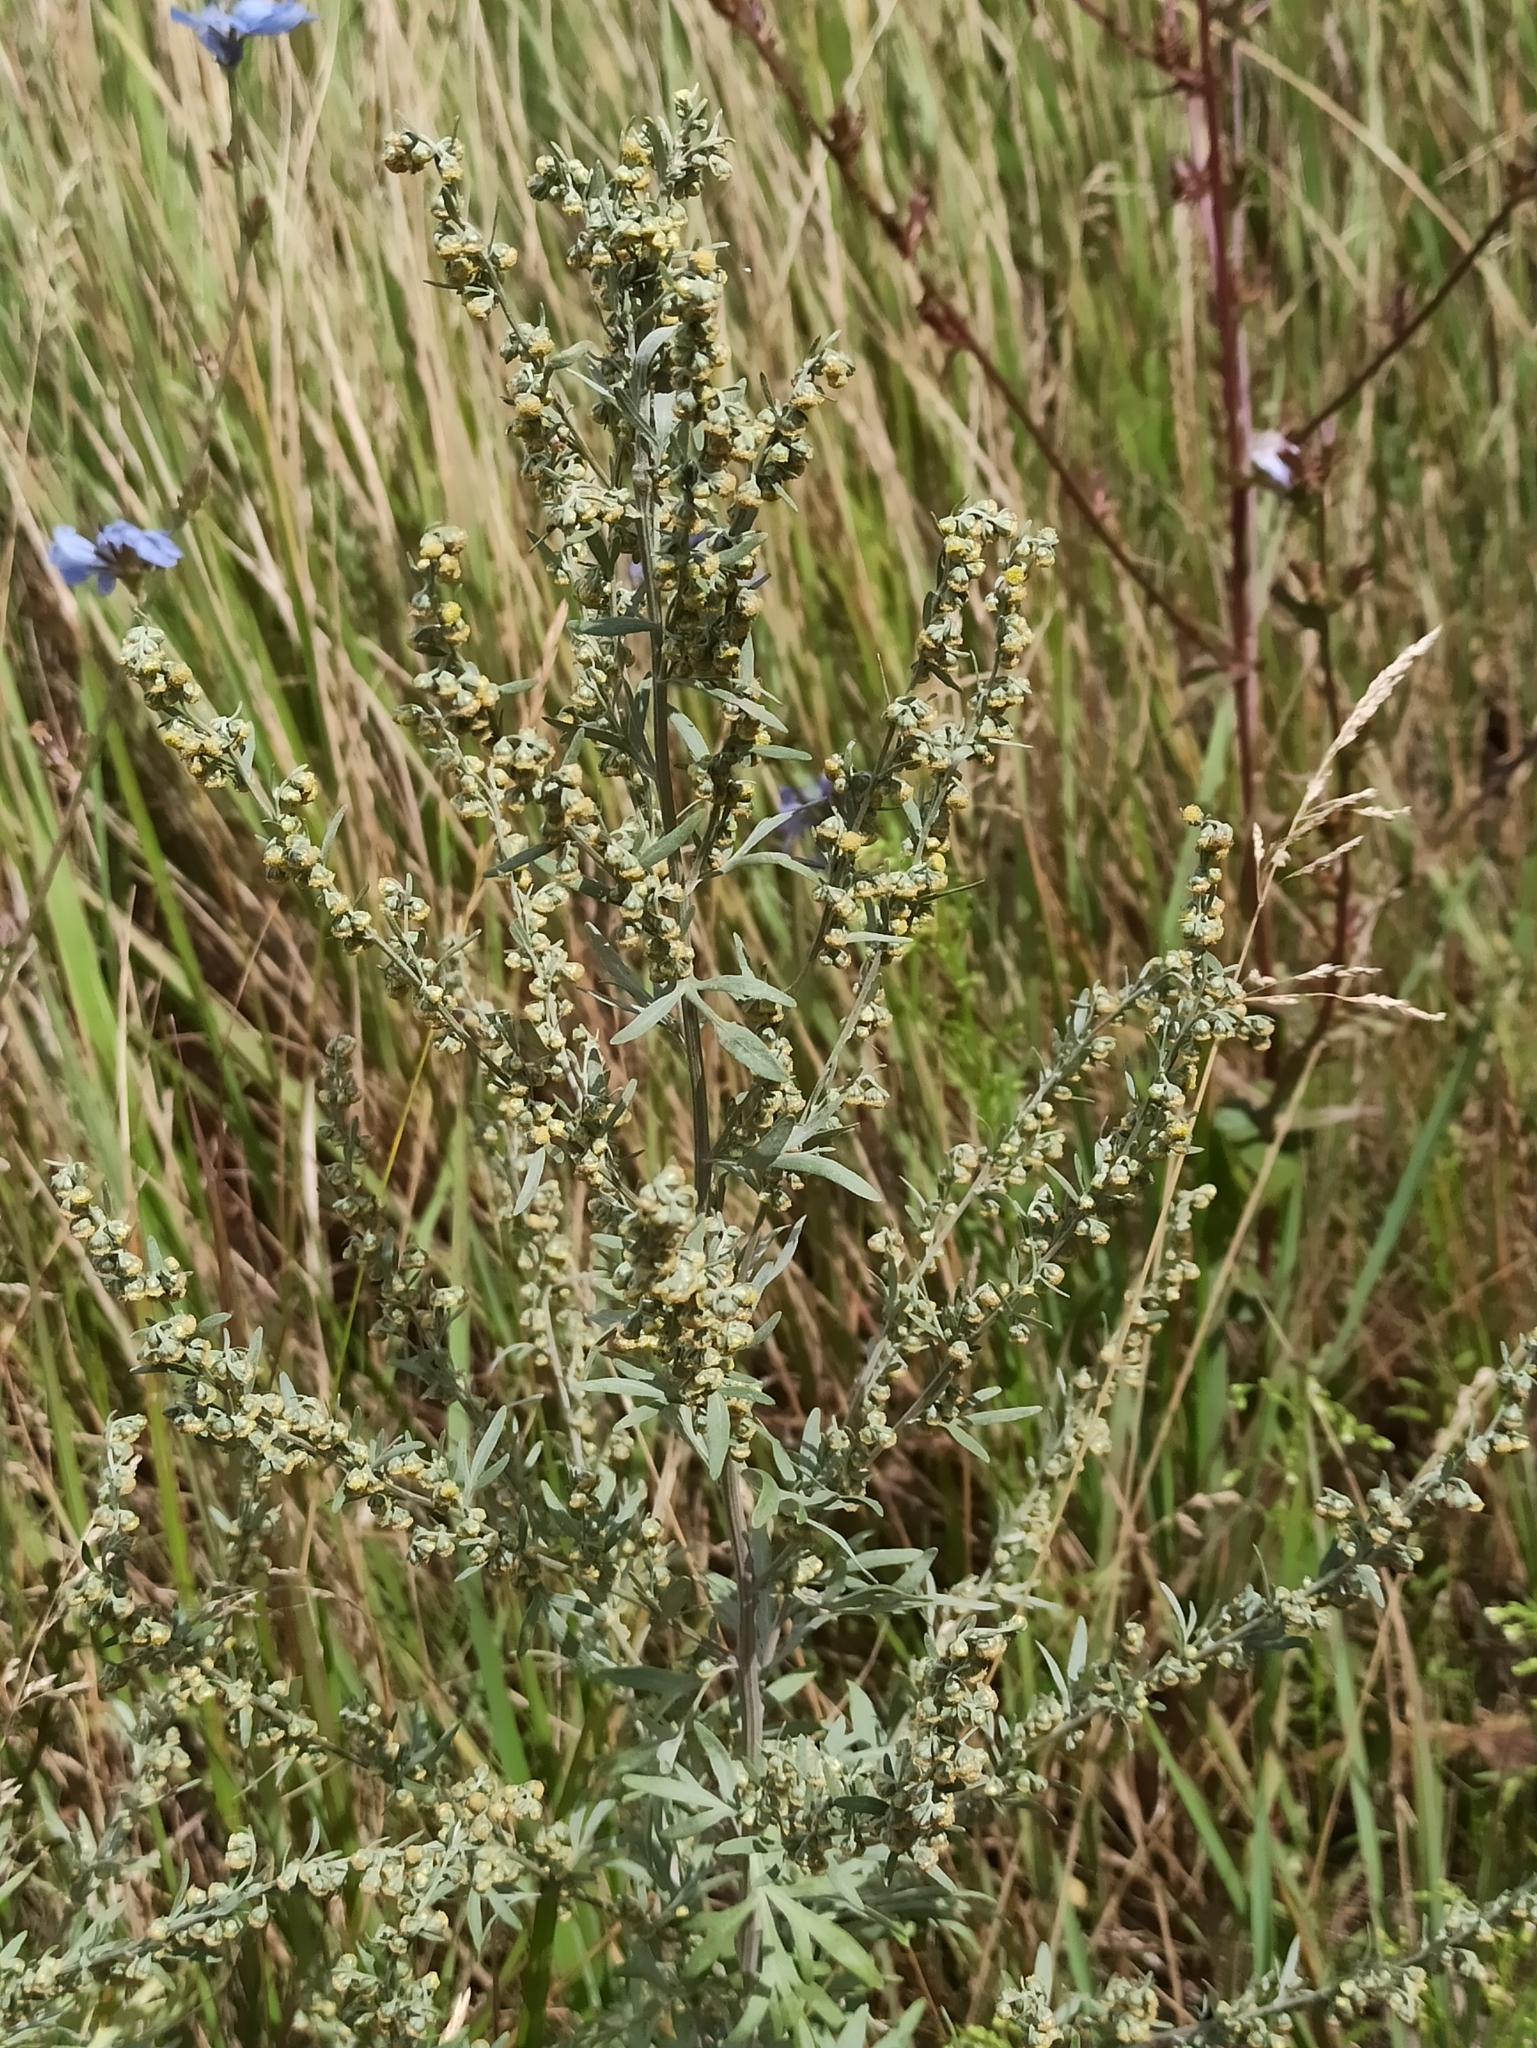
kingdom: Plantae
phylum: Tracheophyta
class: Magnoliopsida
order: Asterales
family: Asteraceae
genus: Artemisia
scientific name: Artemisia absinthium
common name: Wormwood
